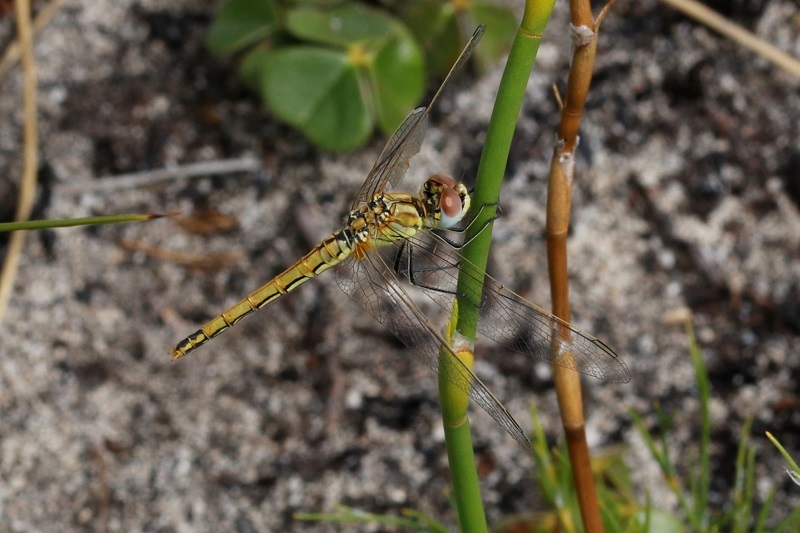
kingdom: Animalia
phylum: Arthropoda
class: Insecta
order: Odonata
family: Libellulidae
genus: Sympetrum
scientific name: Sympetrum fonscolombii
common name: Red-veined darter
